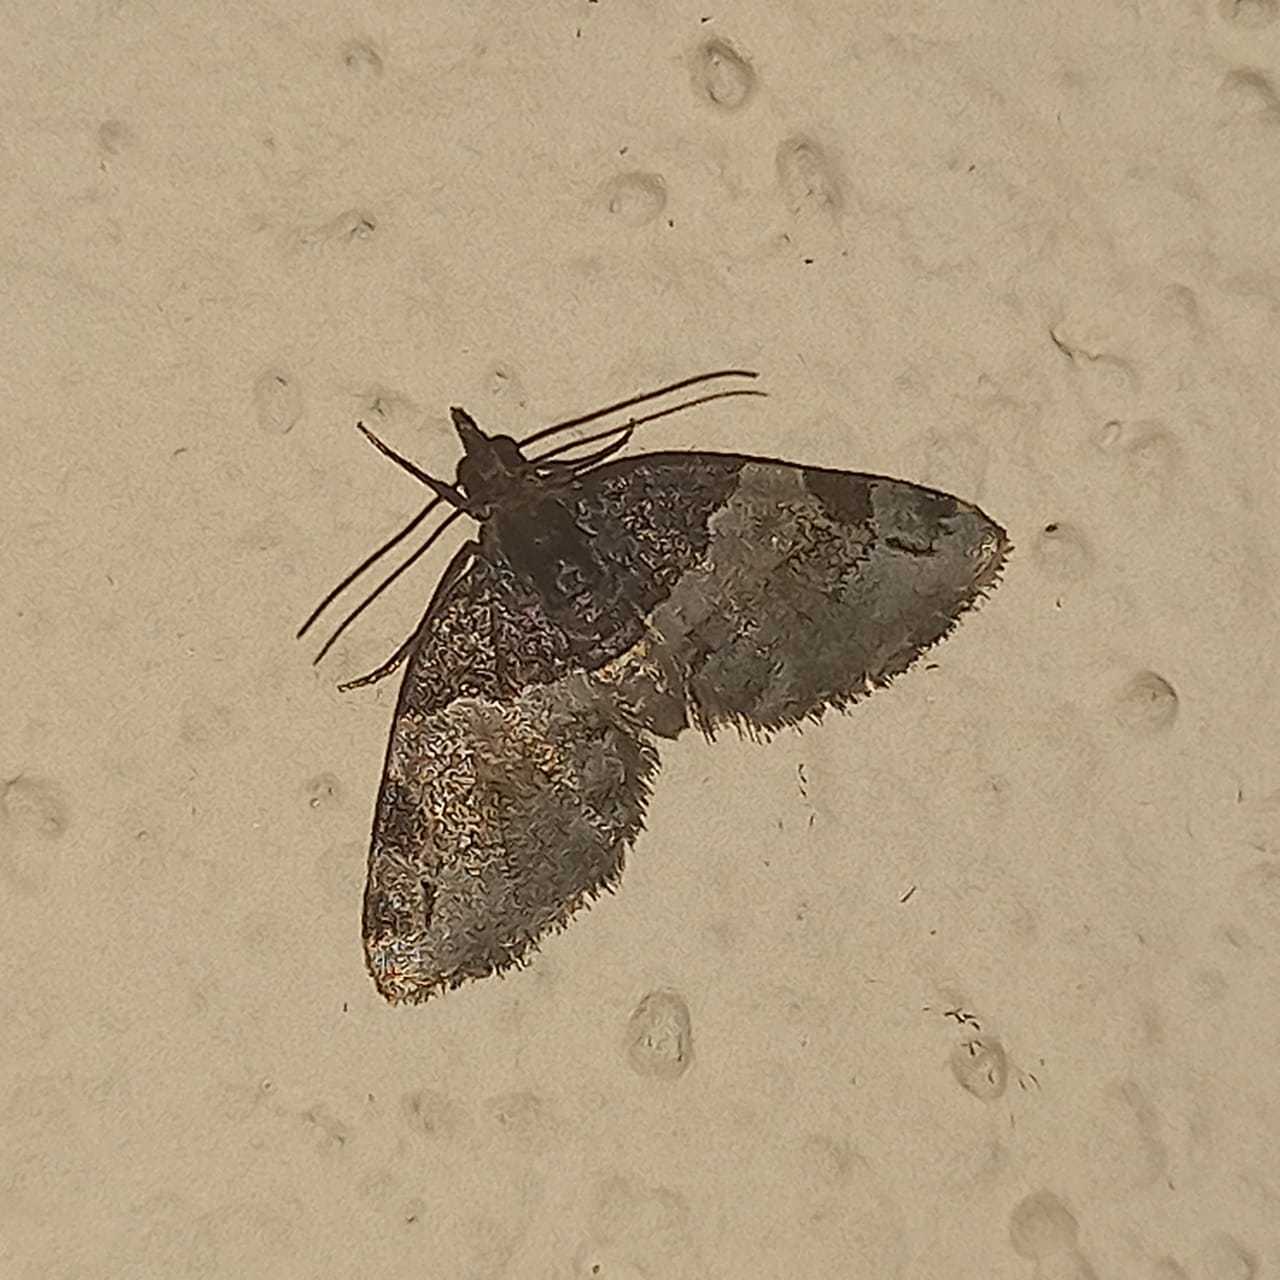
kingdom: Animalia
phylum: Arthropoda
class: Insecta
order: Lepidoptera
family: Geometridae
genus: Perizoma
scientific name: Perizoma basiplaga
